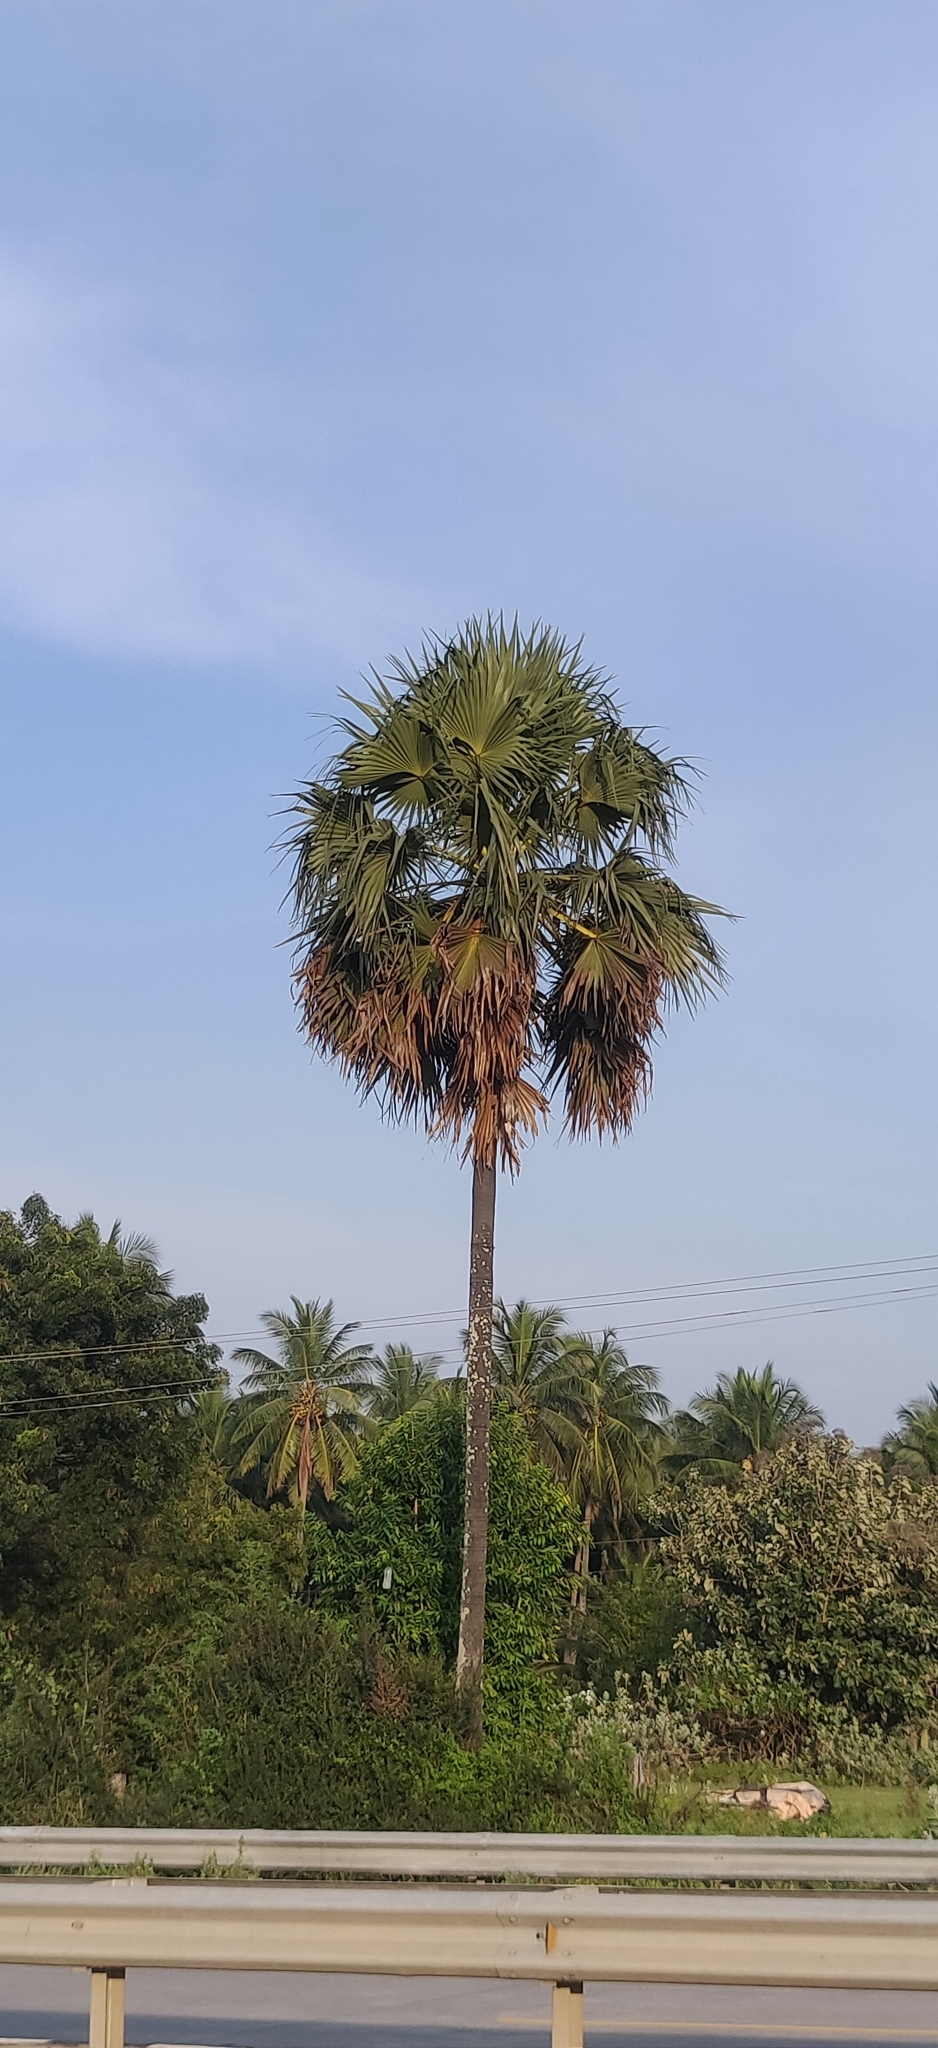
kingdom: Plantae
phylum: Tracheophyta
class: Liliopsida
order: Arecales
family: Arecaceae
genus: Borassus
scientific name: Borassus flabellifer
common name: Palmyra palm
